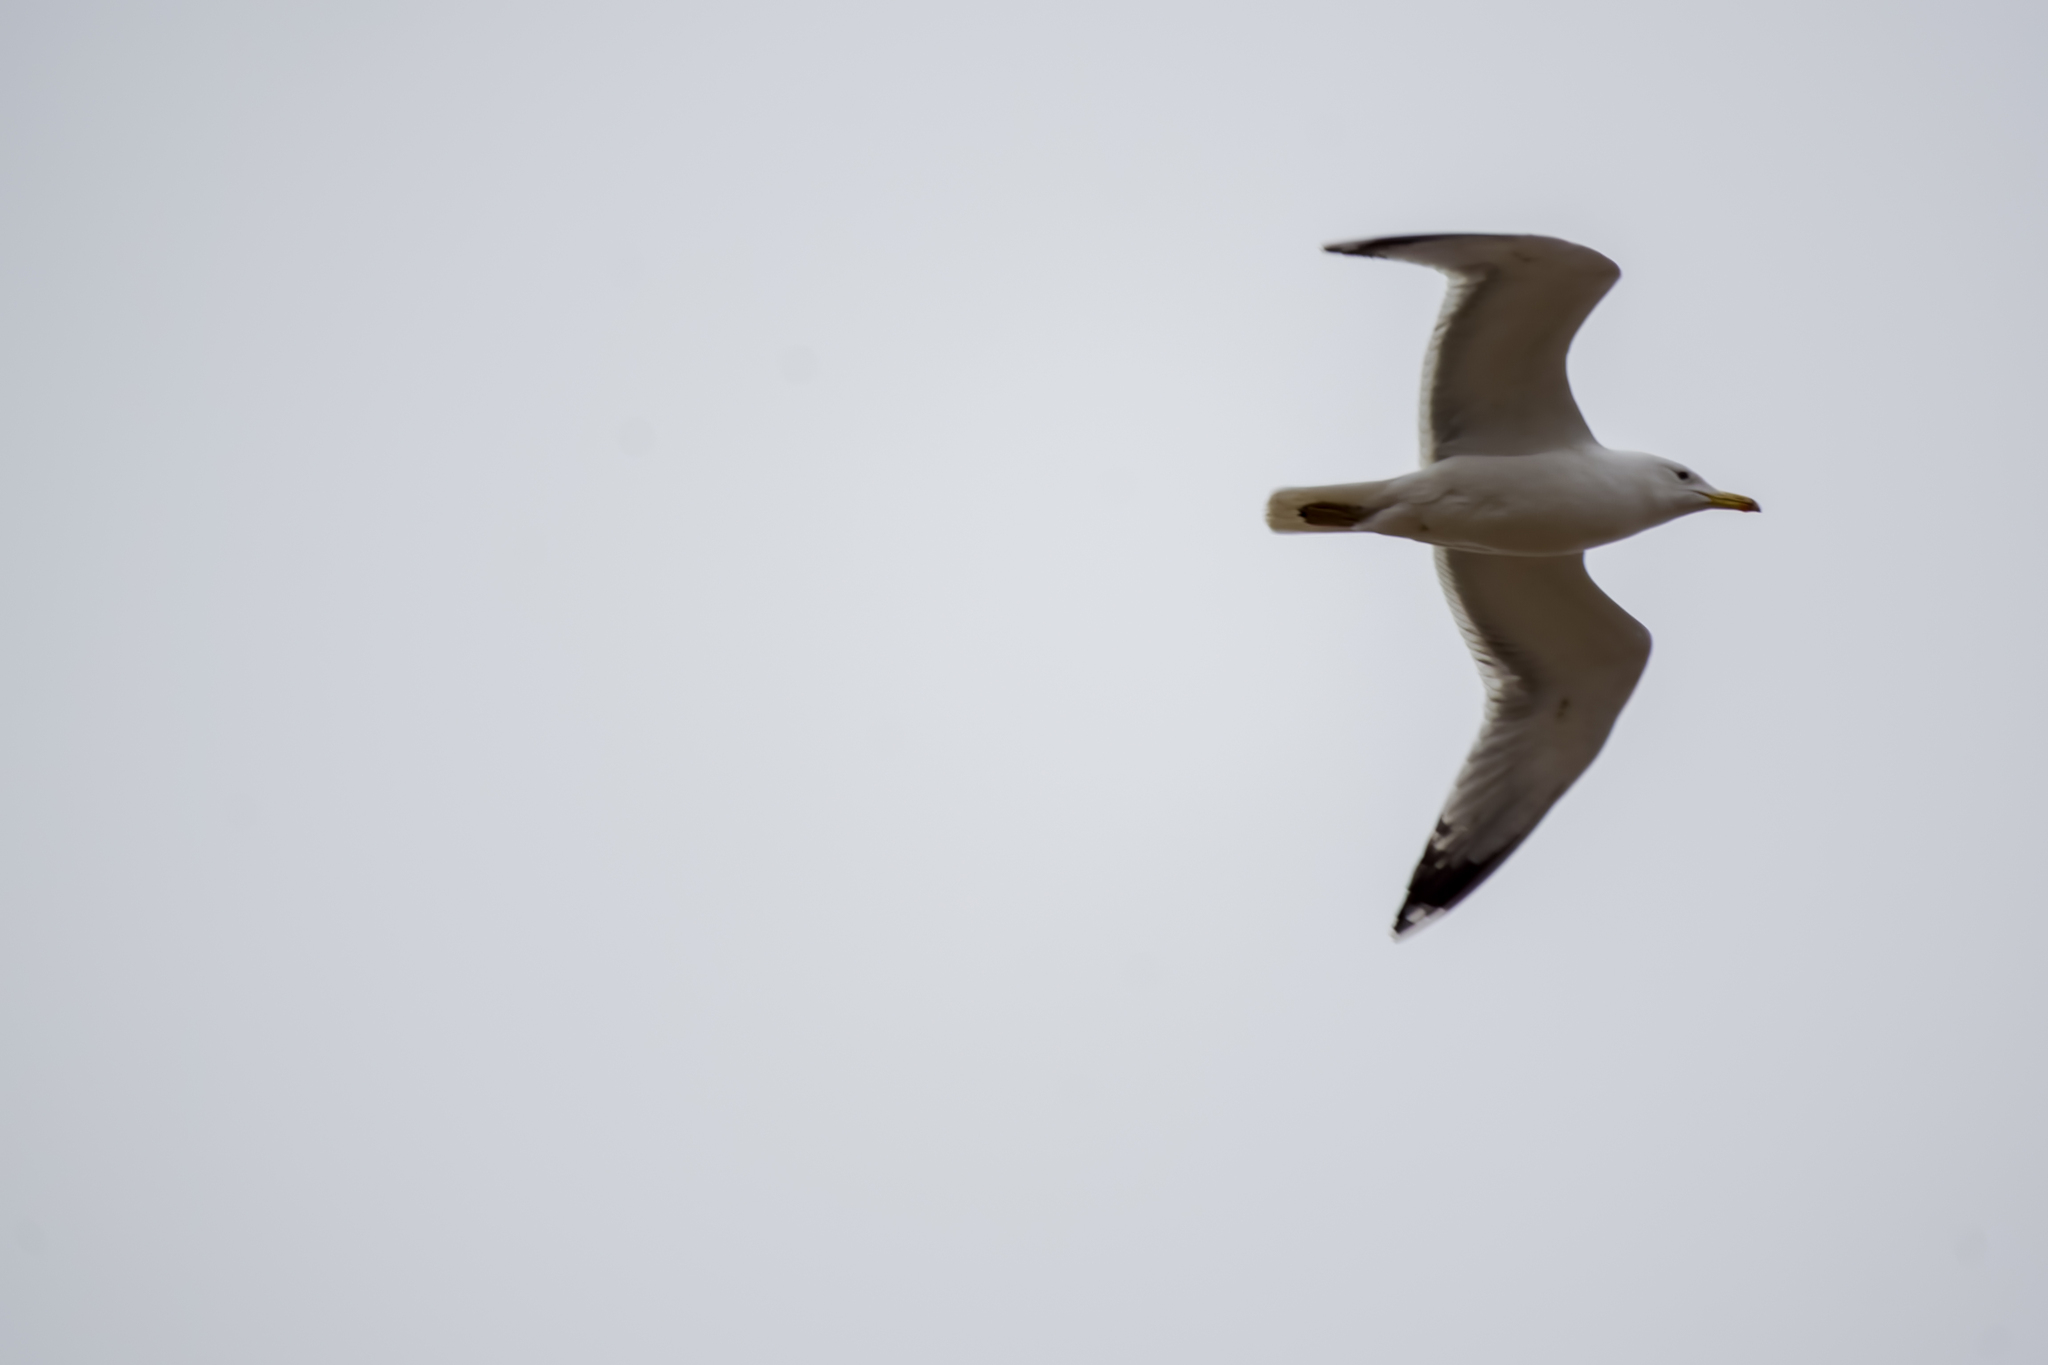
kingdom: Animalia
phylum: Chordata
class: Aves
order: Charadriiformes
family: Laridae
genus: Larus
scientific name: Larus cachinnans
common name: Caspian gull
